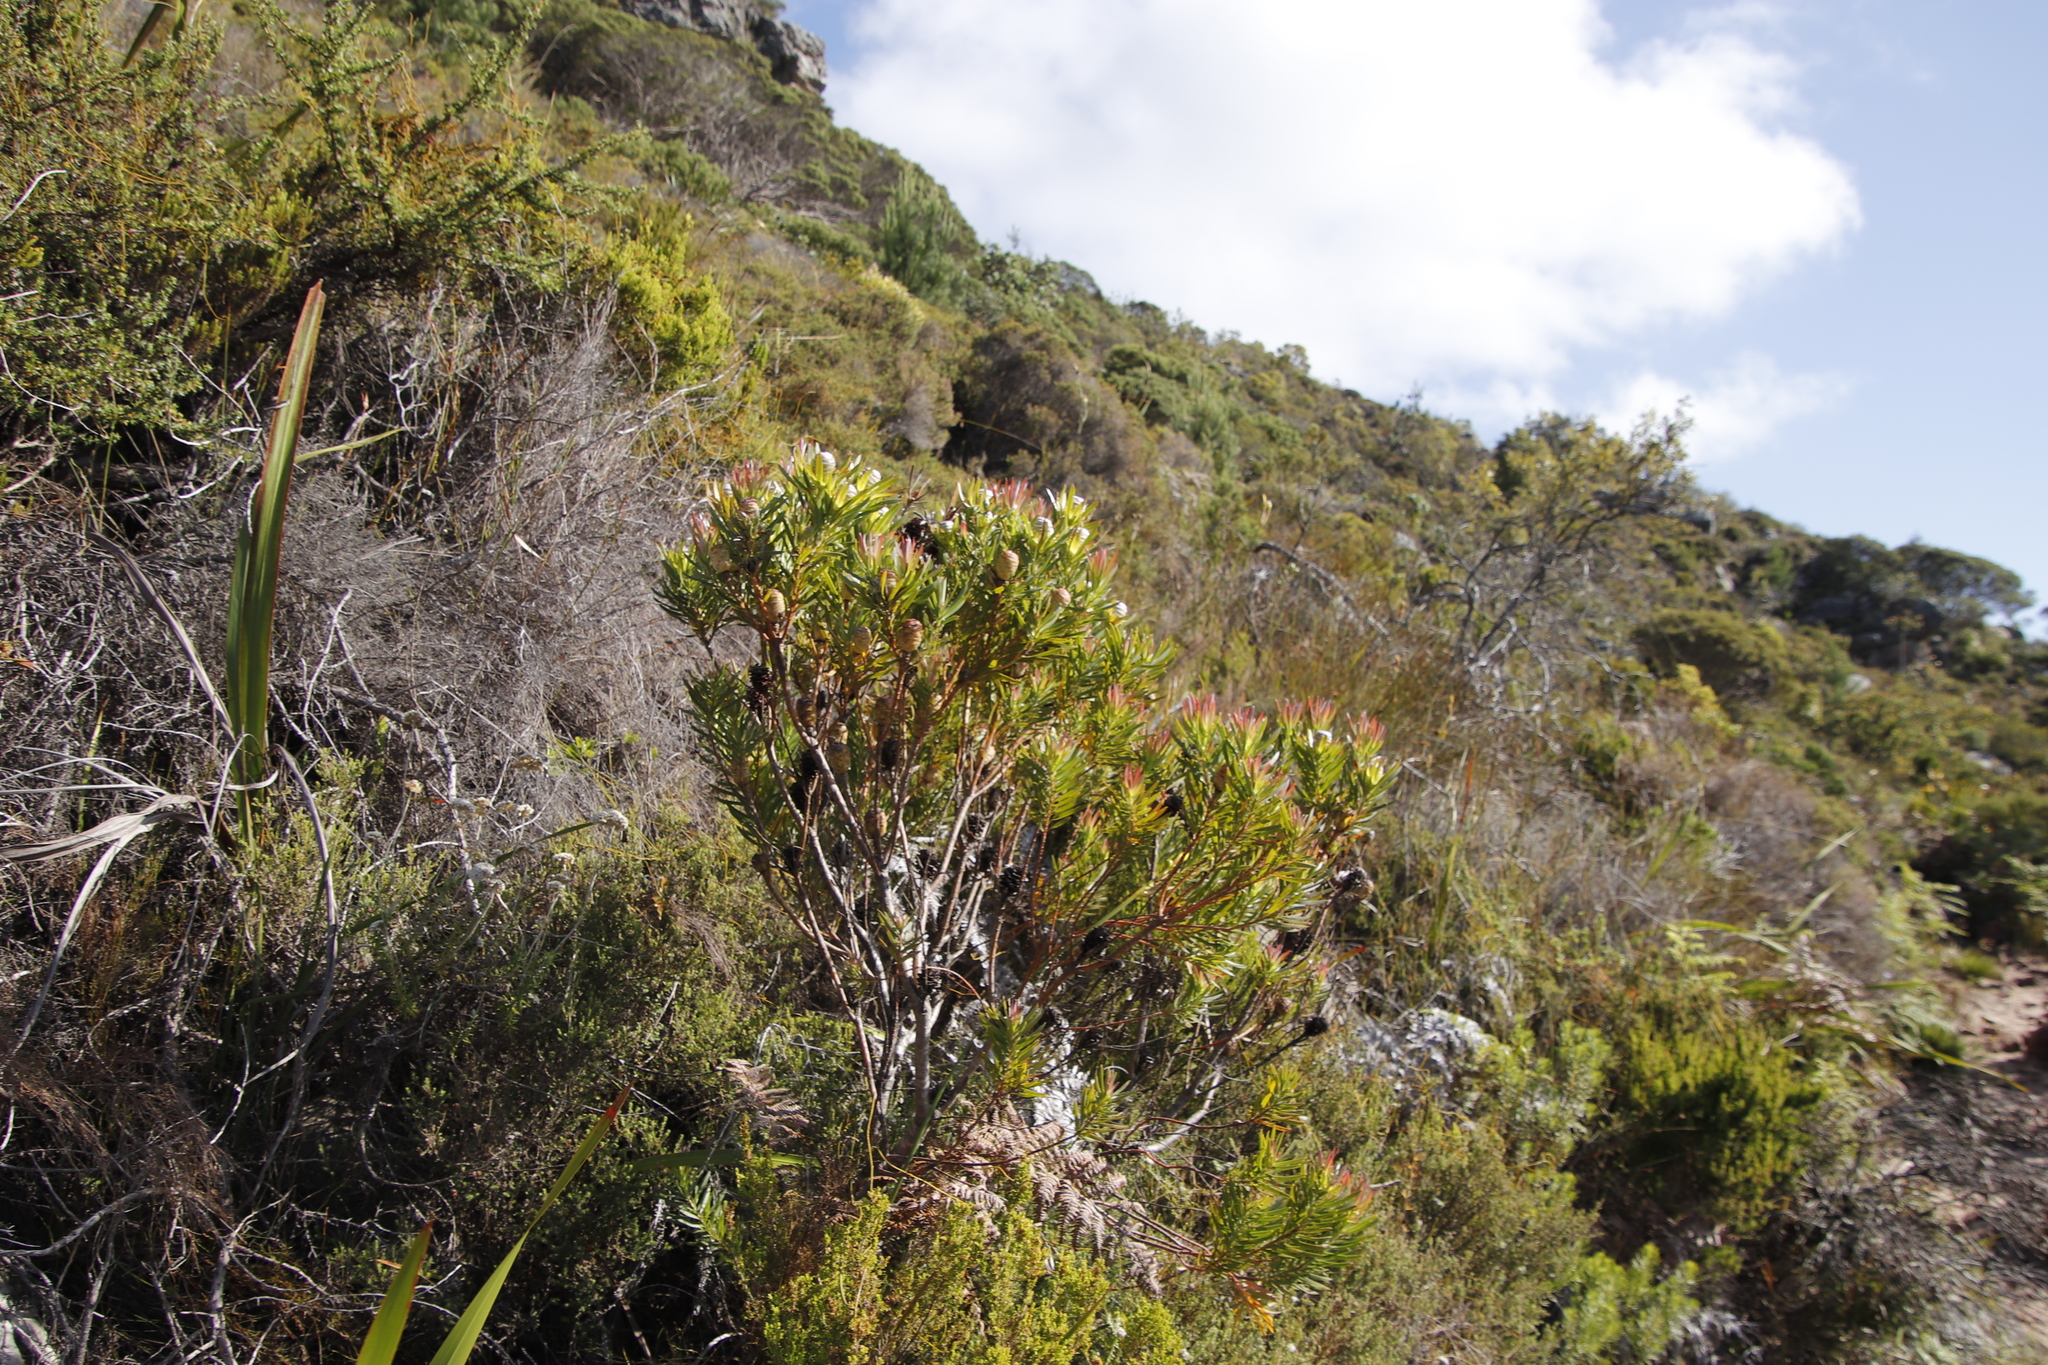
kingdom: Plantae
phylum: Tracheophyta
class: Magnoliopsida
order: Proteales
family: Proteaceae
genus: Leucadendron
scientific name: Leucadendron xanthoconus
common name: Sickle-leaf conebush
